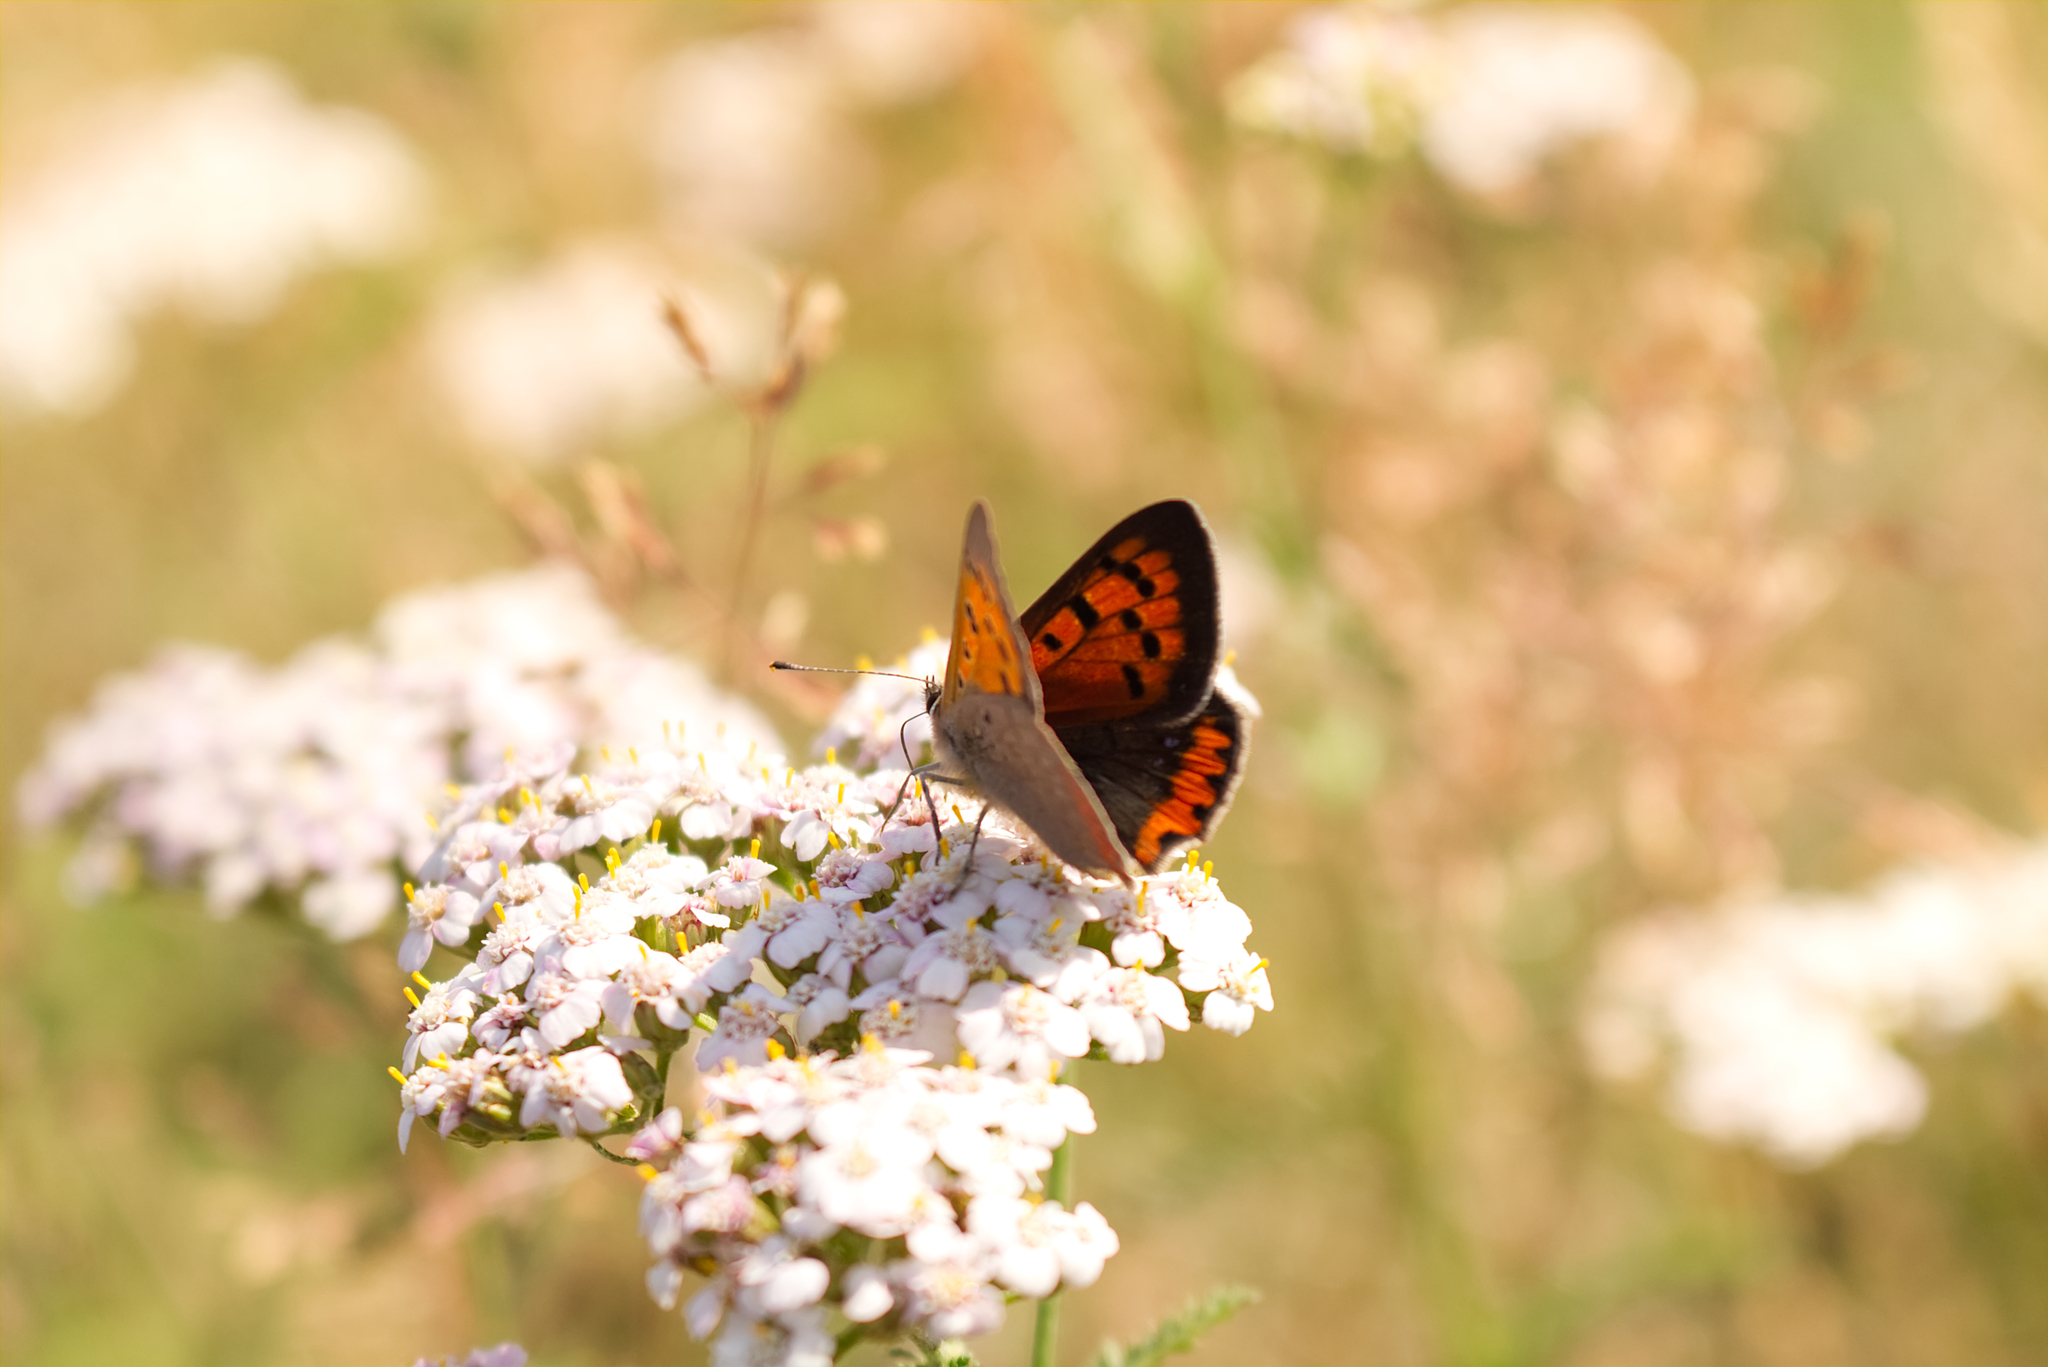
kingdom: Animalia
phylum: Arthropoda
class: Insecta
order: Lepidoptera
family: Lycaenidae
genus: Lycaena
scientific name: Lycaena phlaeas
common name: Small copper
